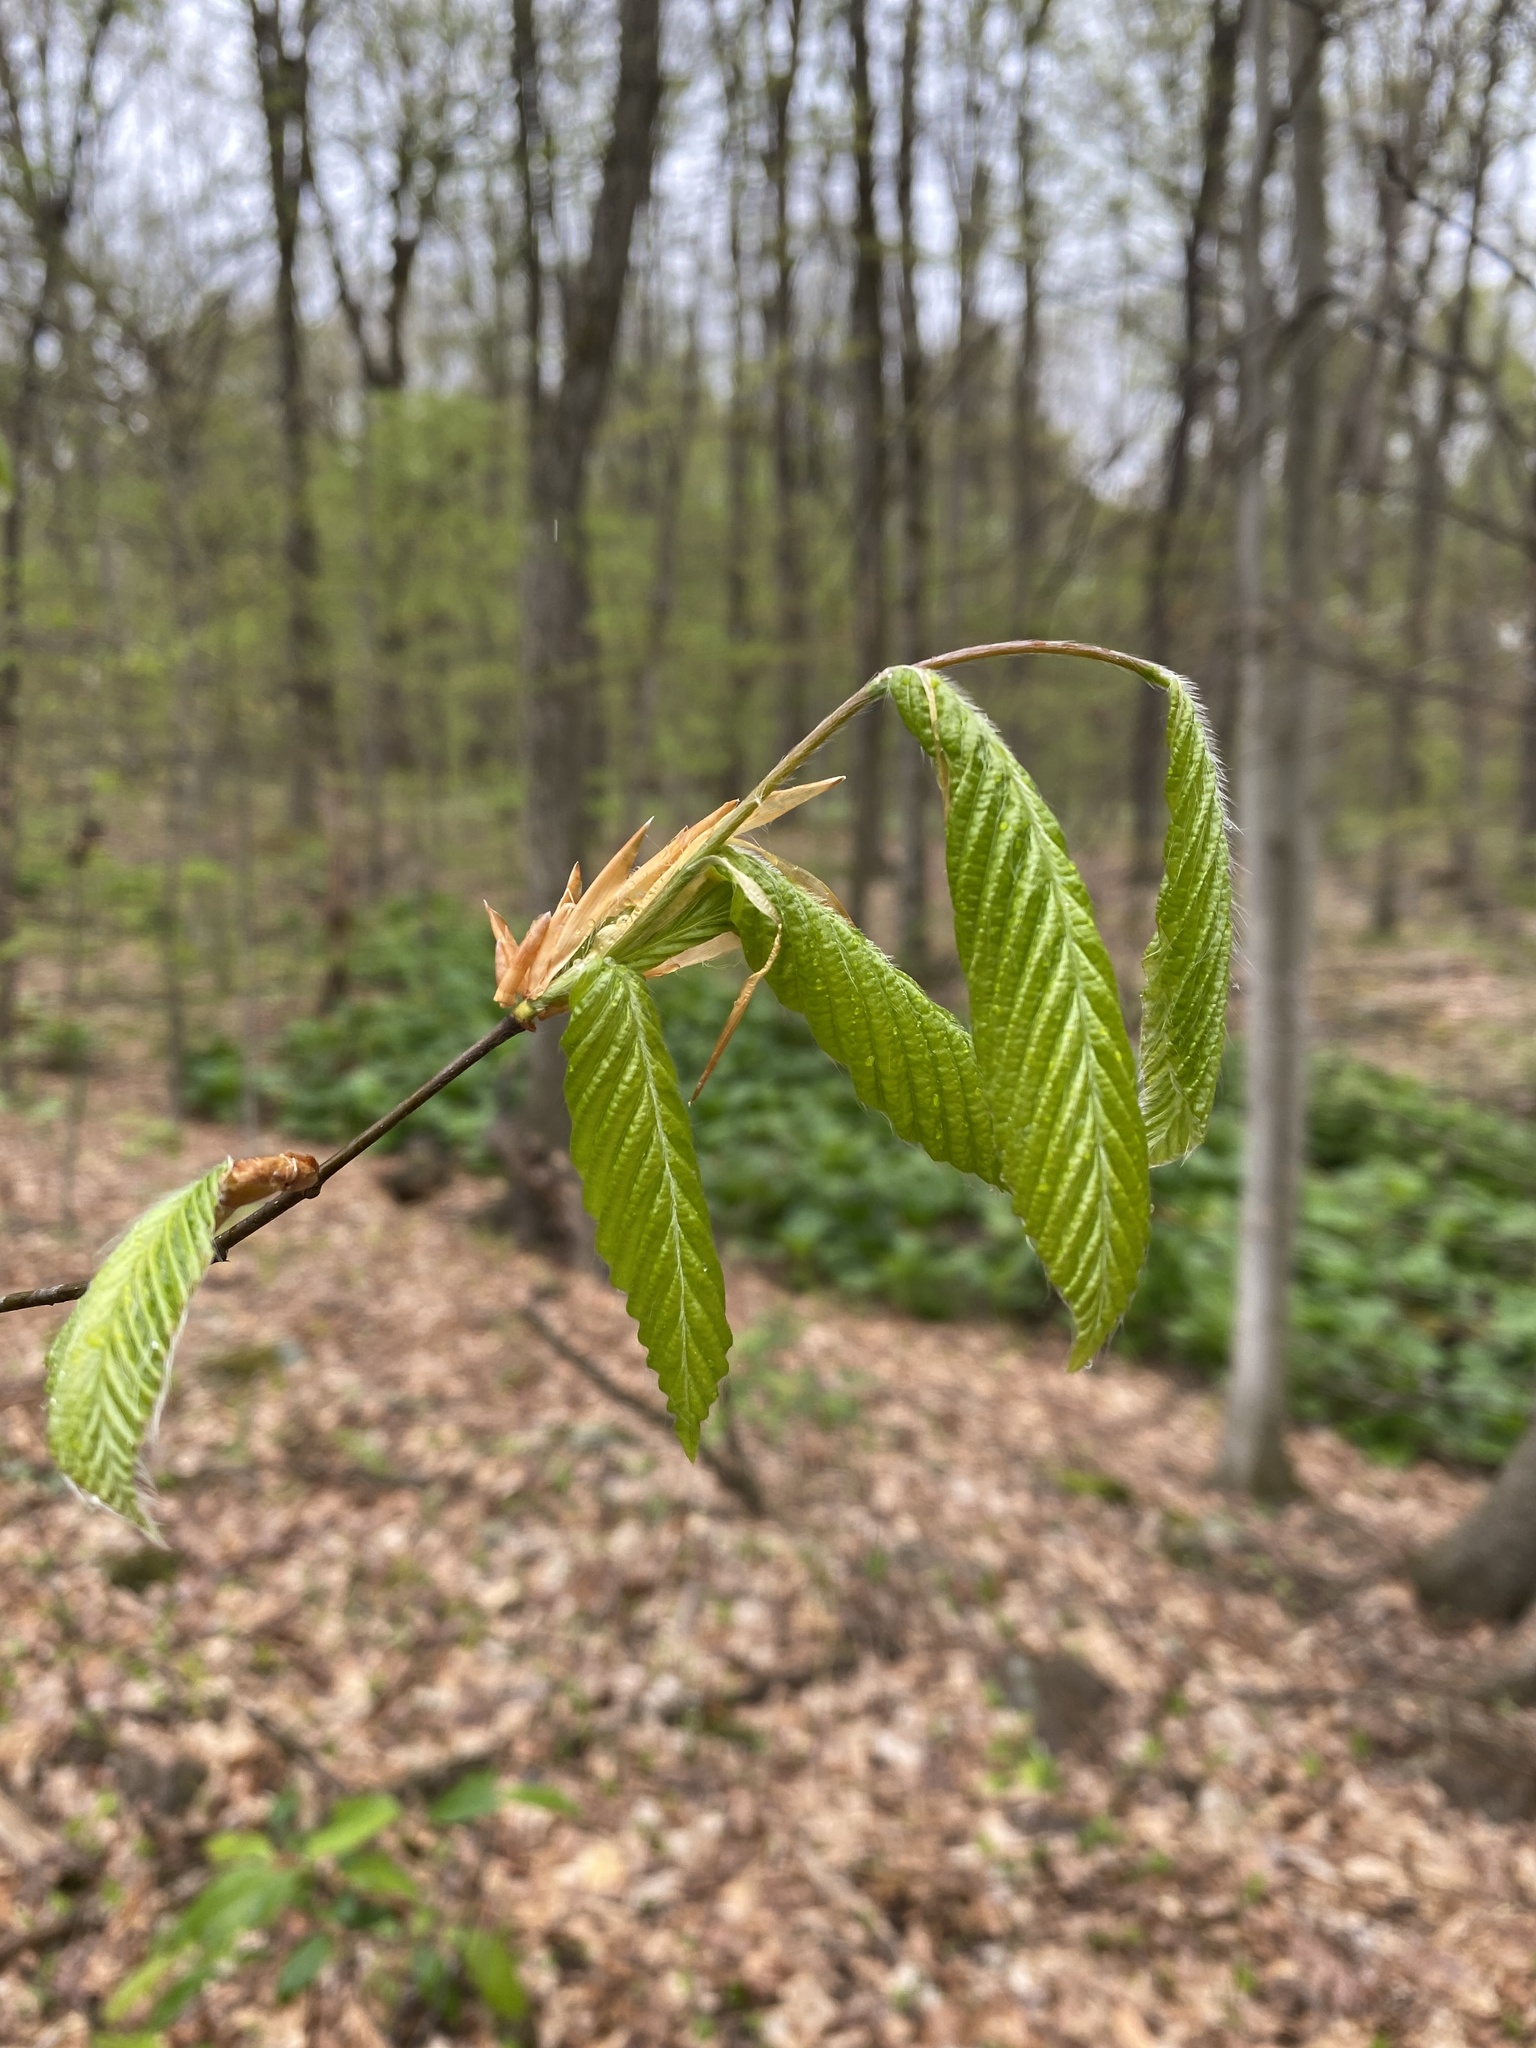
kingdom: Plantae
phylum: Tracheophyta
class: Magnoliopsida
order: Fagales
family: Fagaceae
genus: Fagus
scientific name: Fagus grandifolia
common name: American beech
